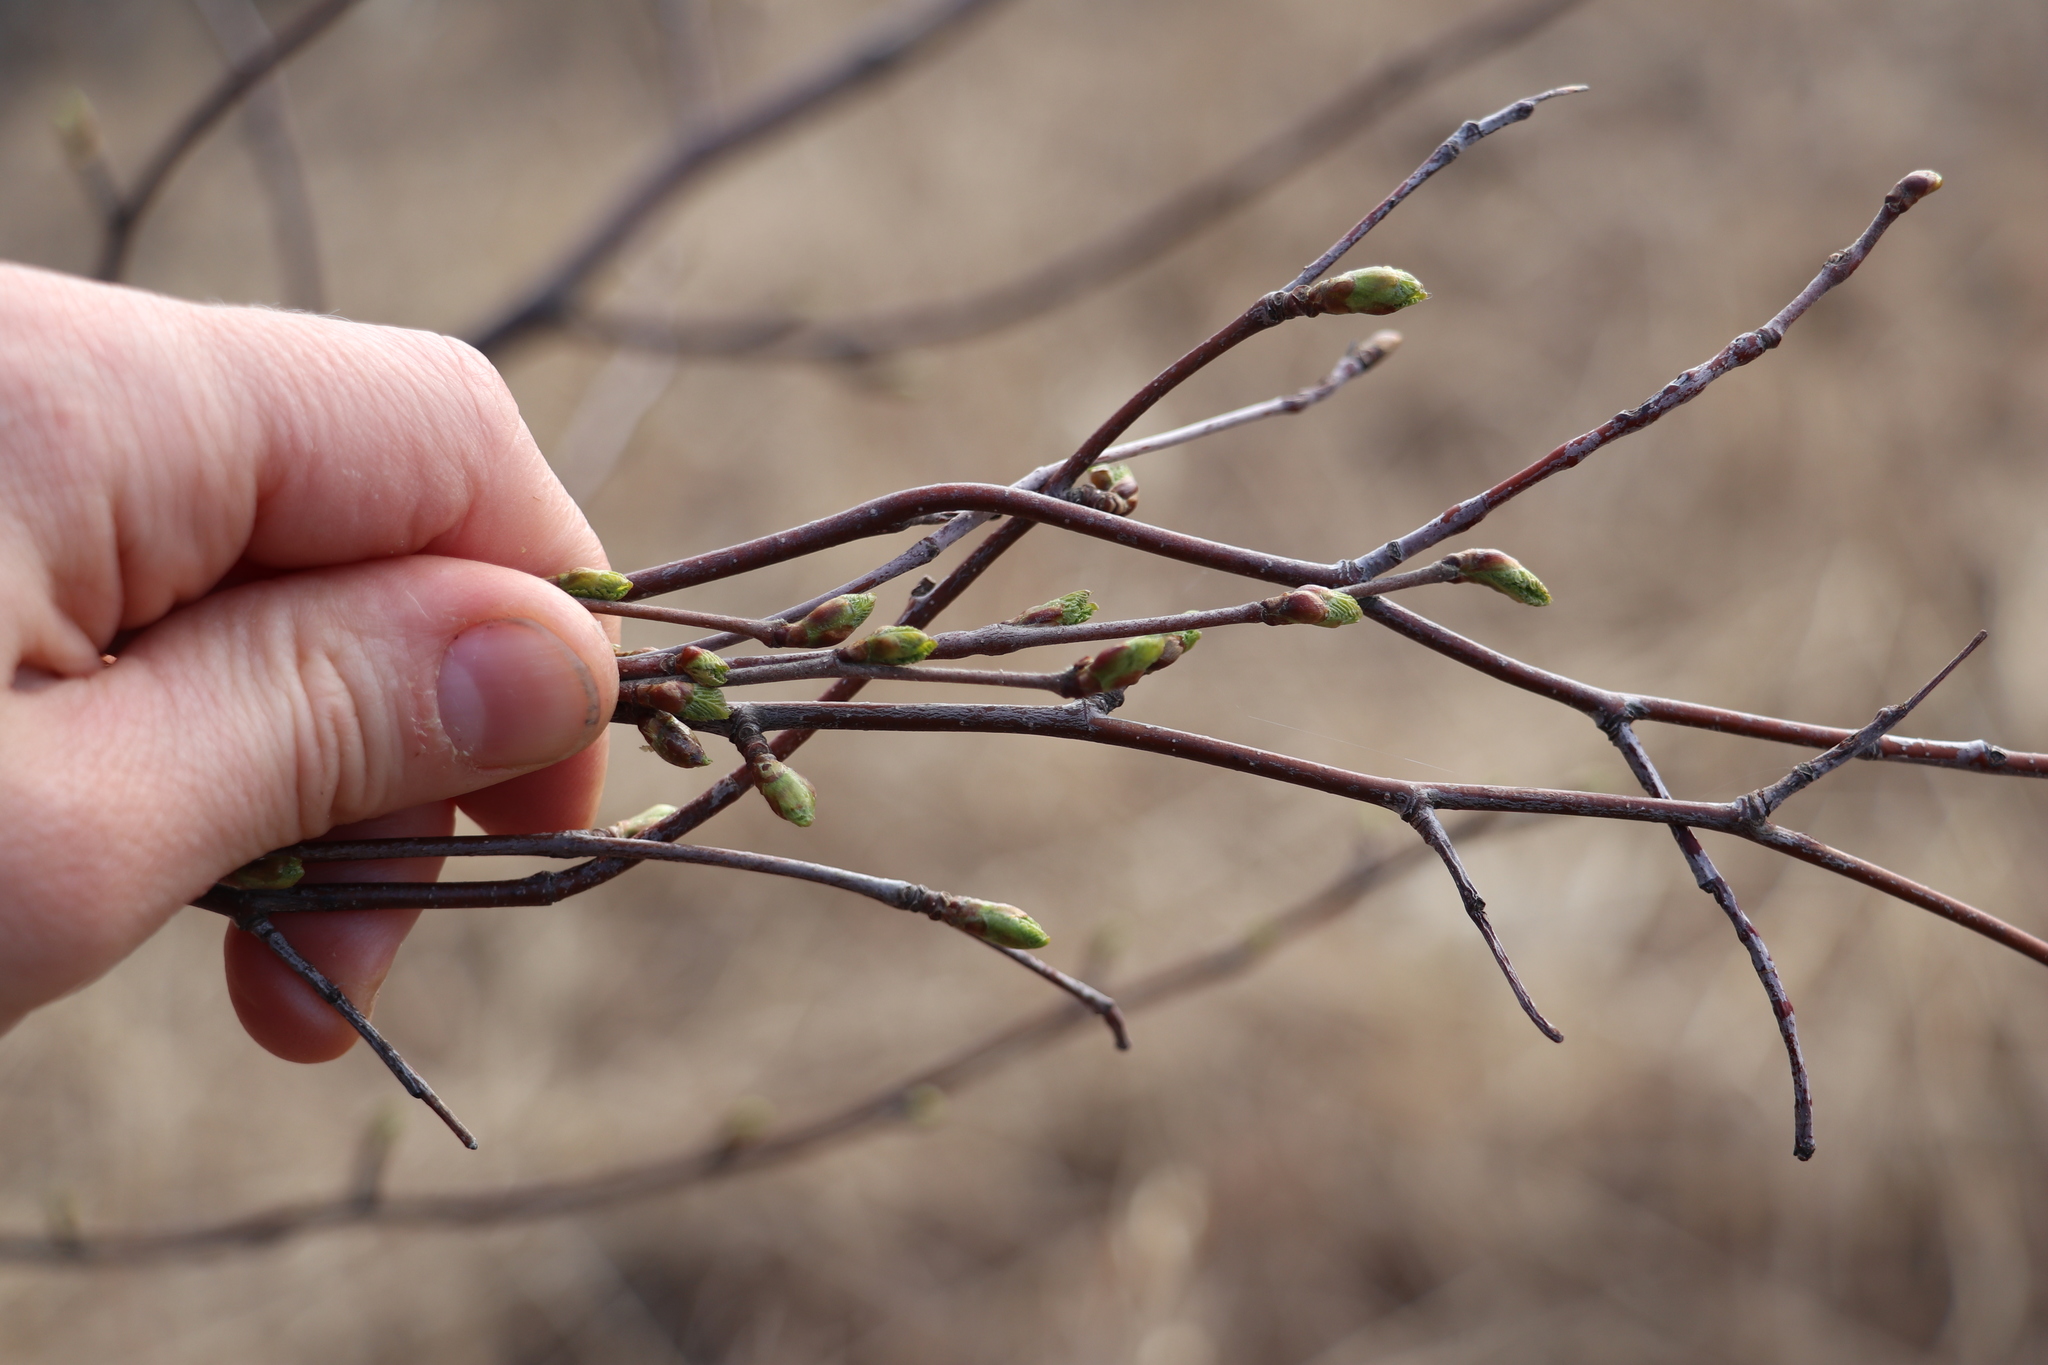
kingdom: Plantae
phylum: Tracheophyta
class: Magnoliopsida
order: Fagales
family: Betulaceae
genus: Betula
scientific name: Betula pubescens
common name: Downy birch
